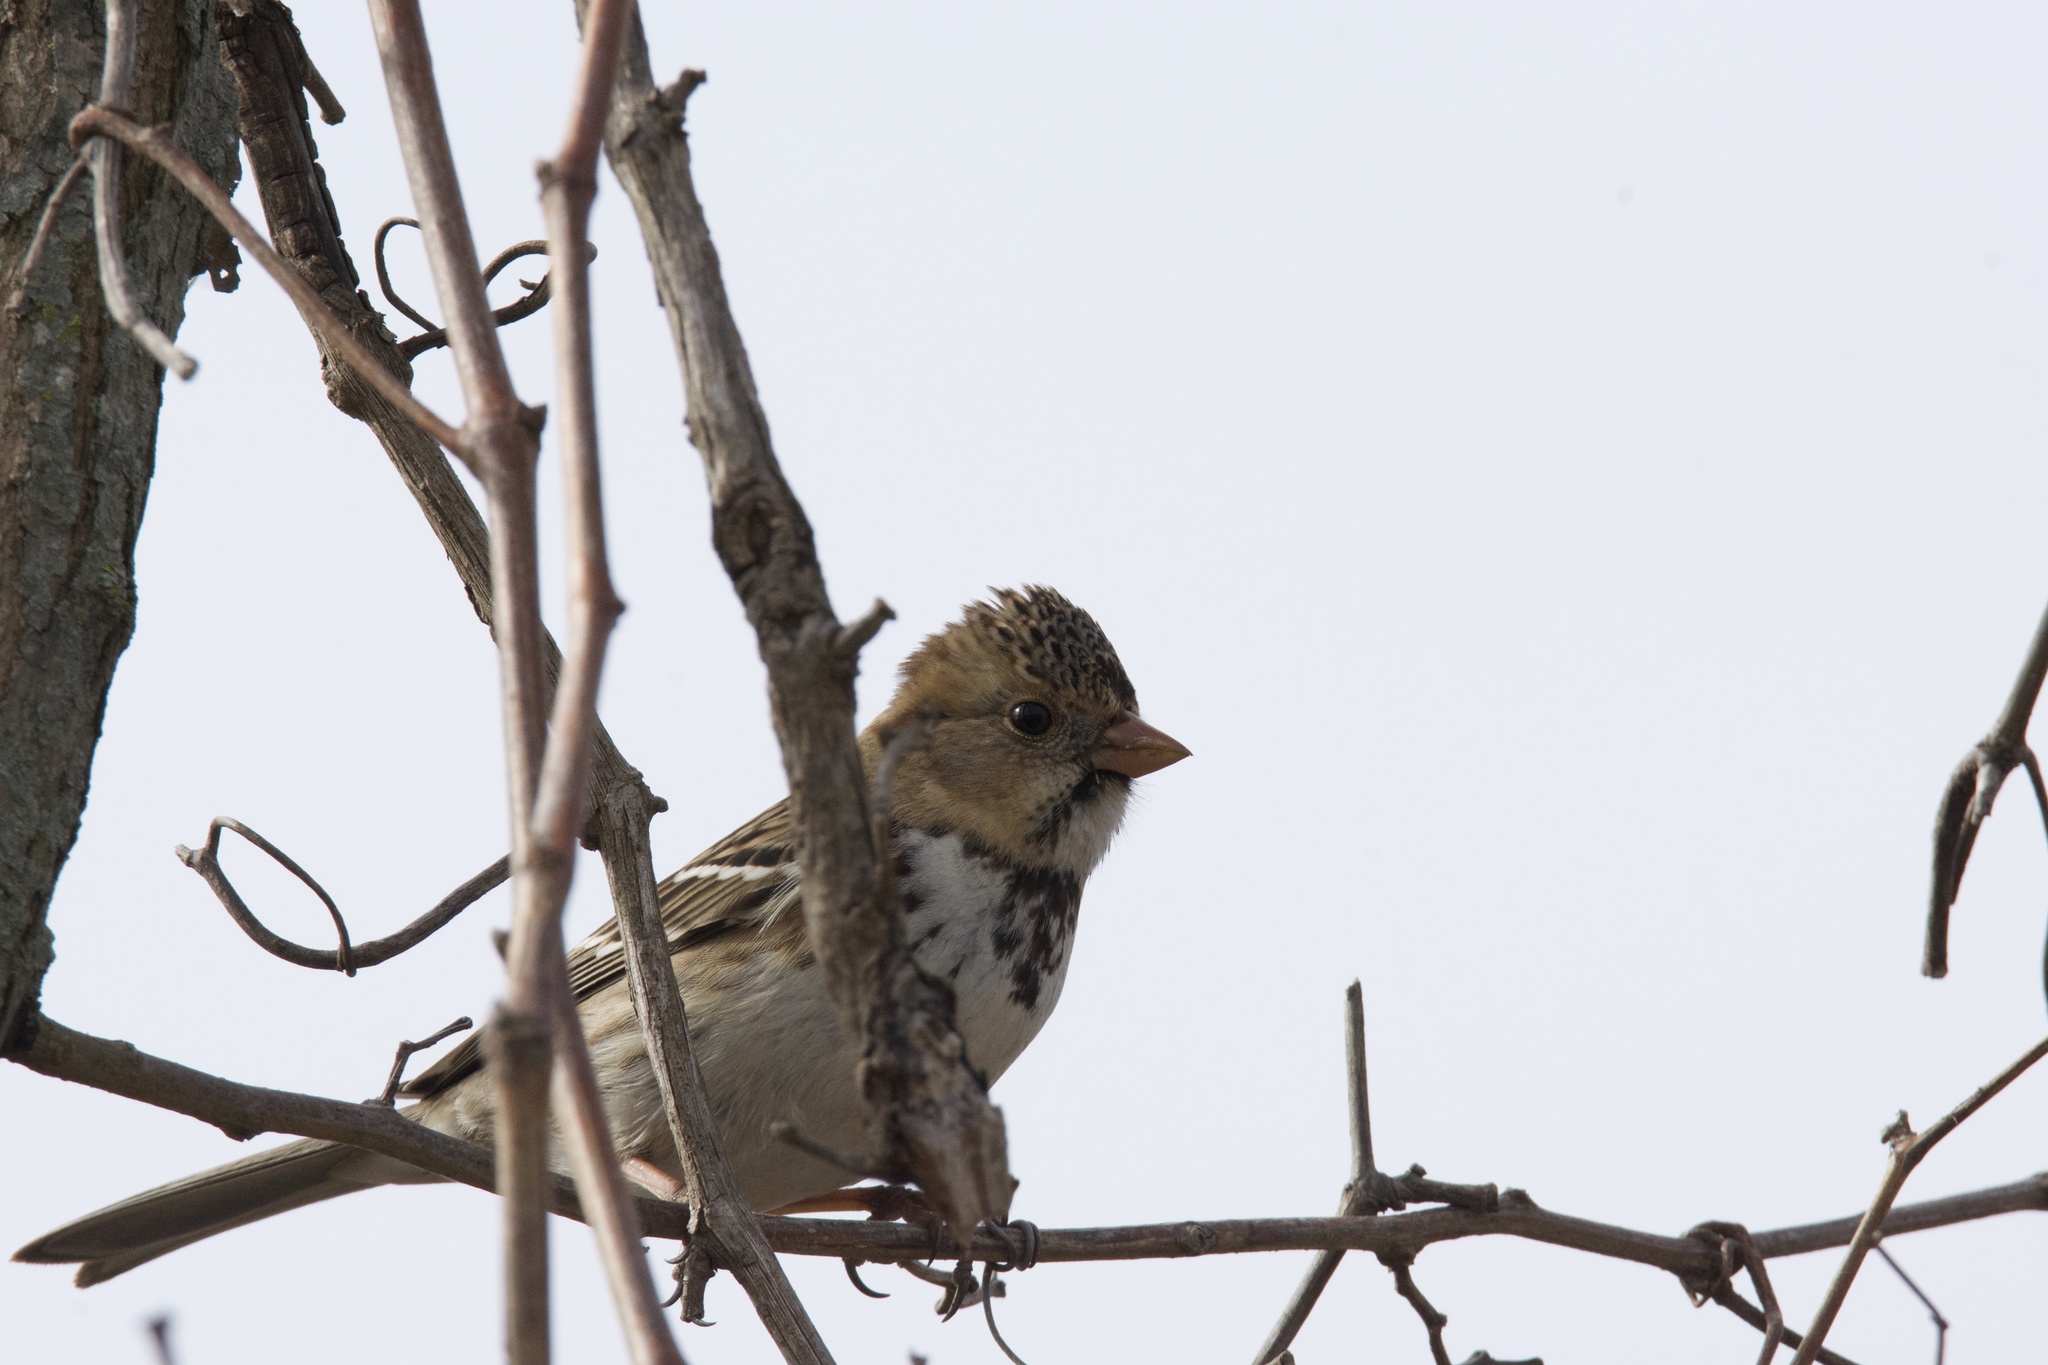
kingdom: Animalia
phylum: Chordata
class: Aves
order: Passeriformes
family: Passerellidae
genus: Zonotrichia
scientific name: Zonotrichia querula
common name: Harris's sparrow
